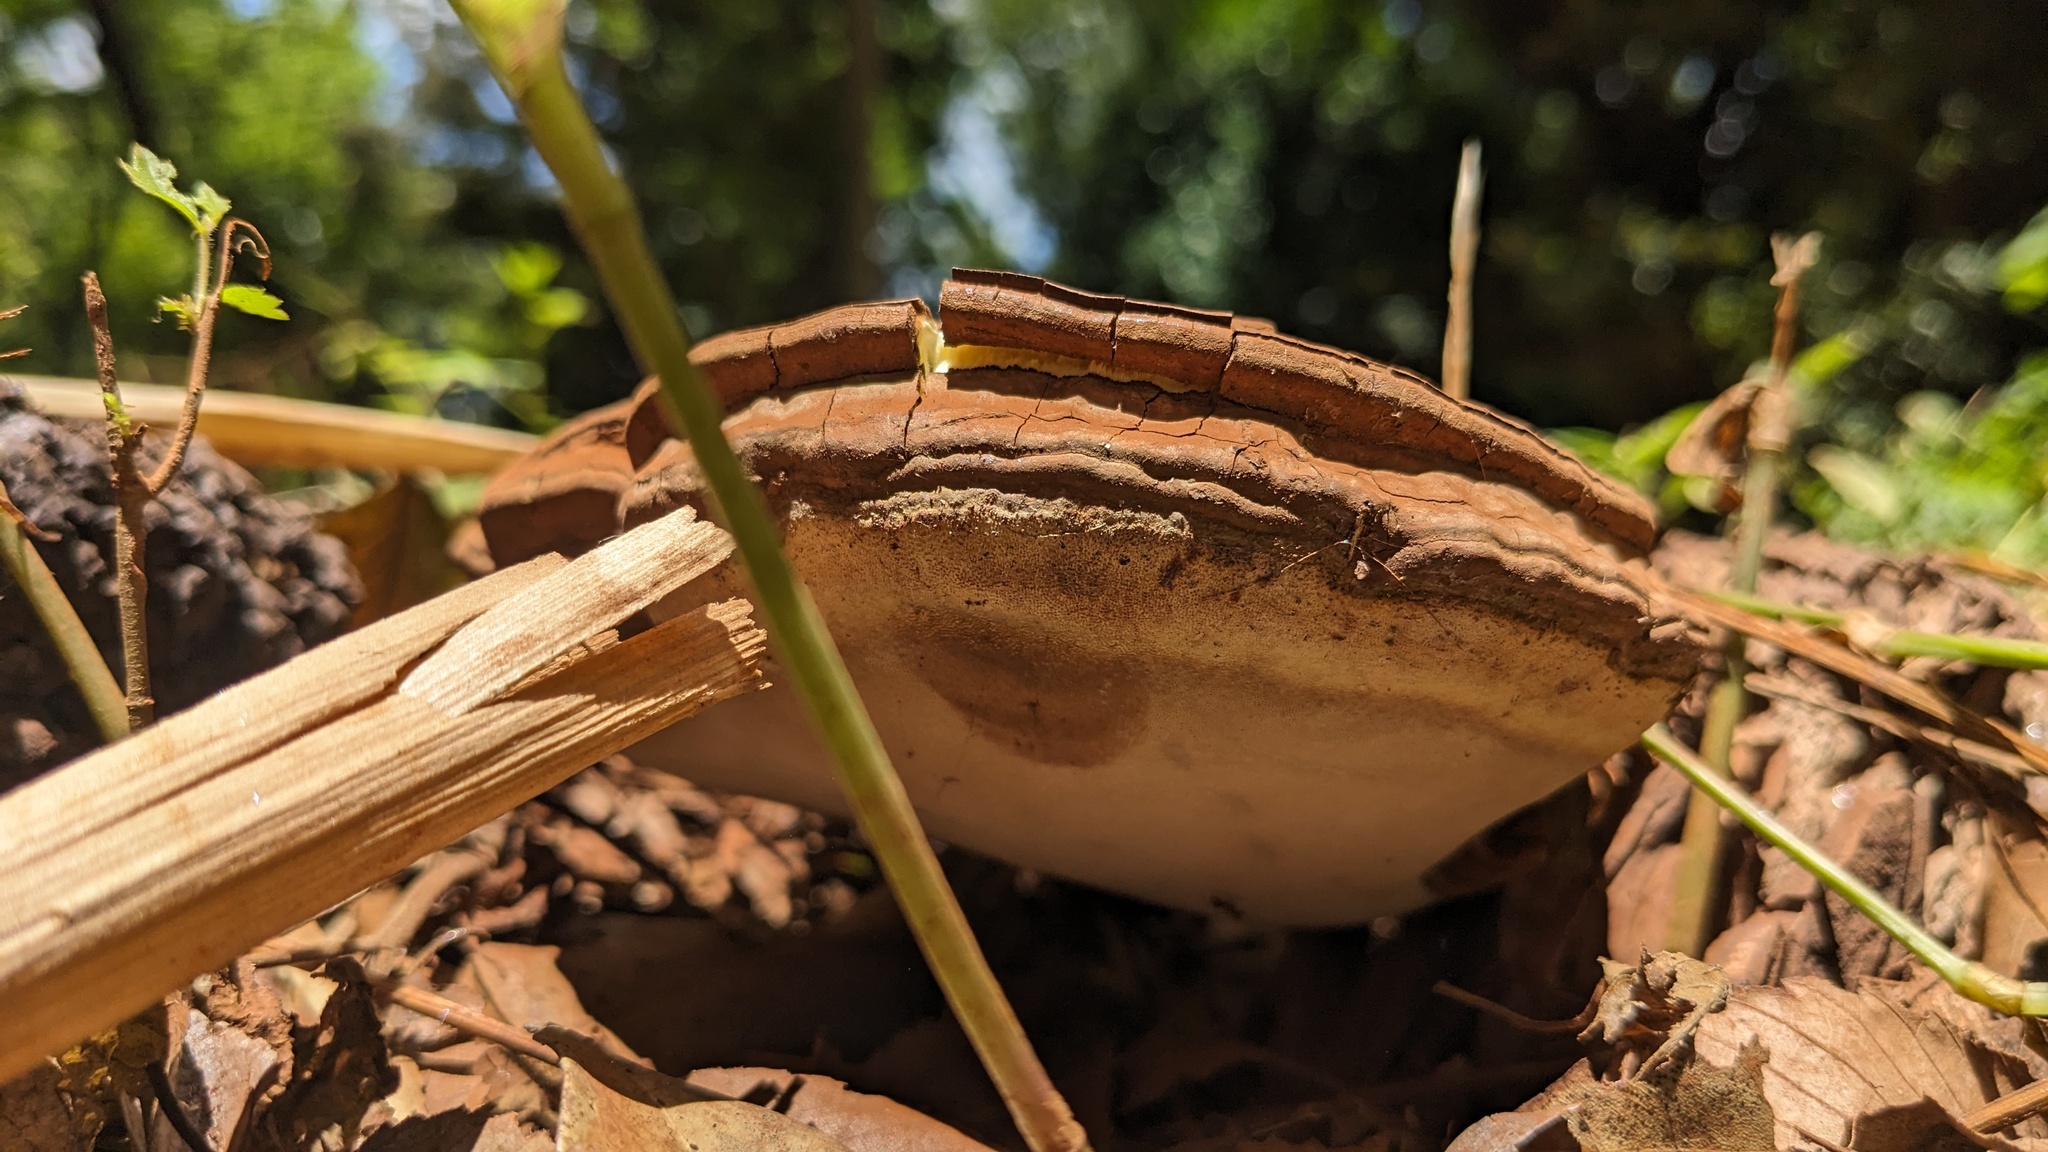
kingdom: Fungi
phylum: Basidiomycota
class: Agaricomycetes
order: Polyporales
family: Polyporaceae
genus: Ganoderma
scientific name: Ganoderma applanatum
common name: Artist's bracket
